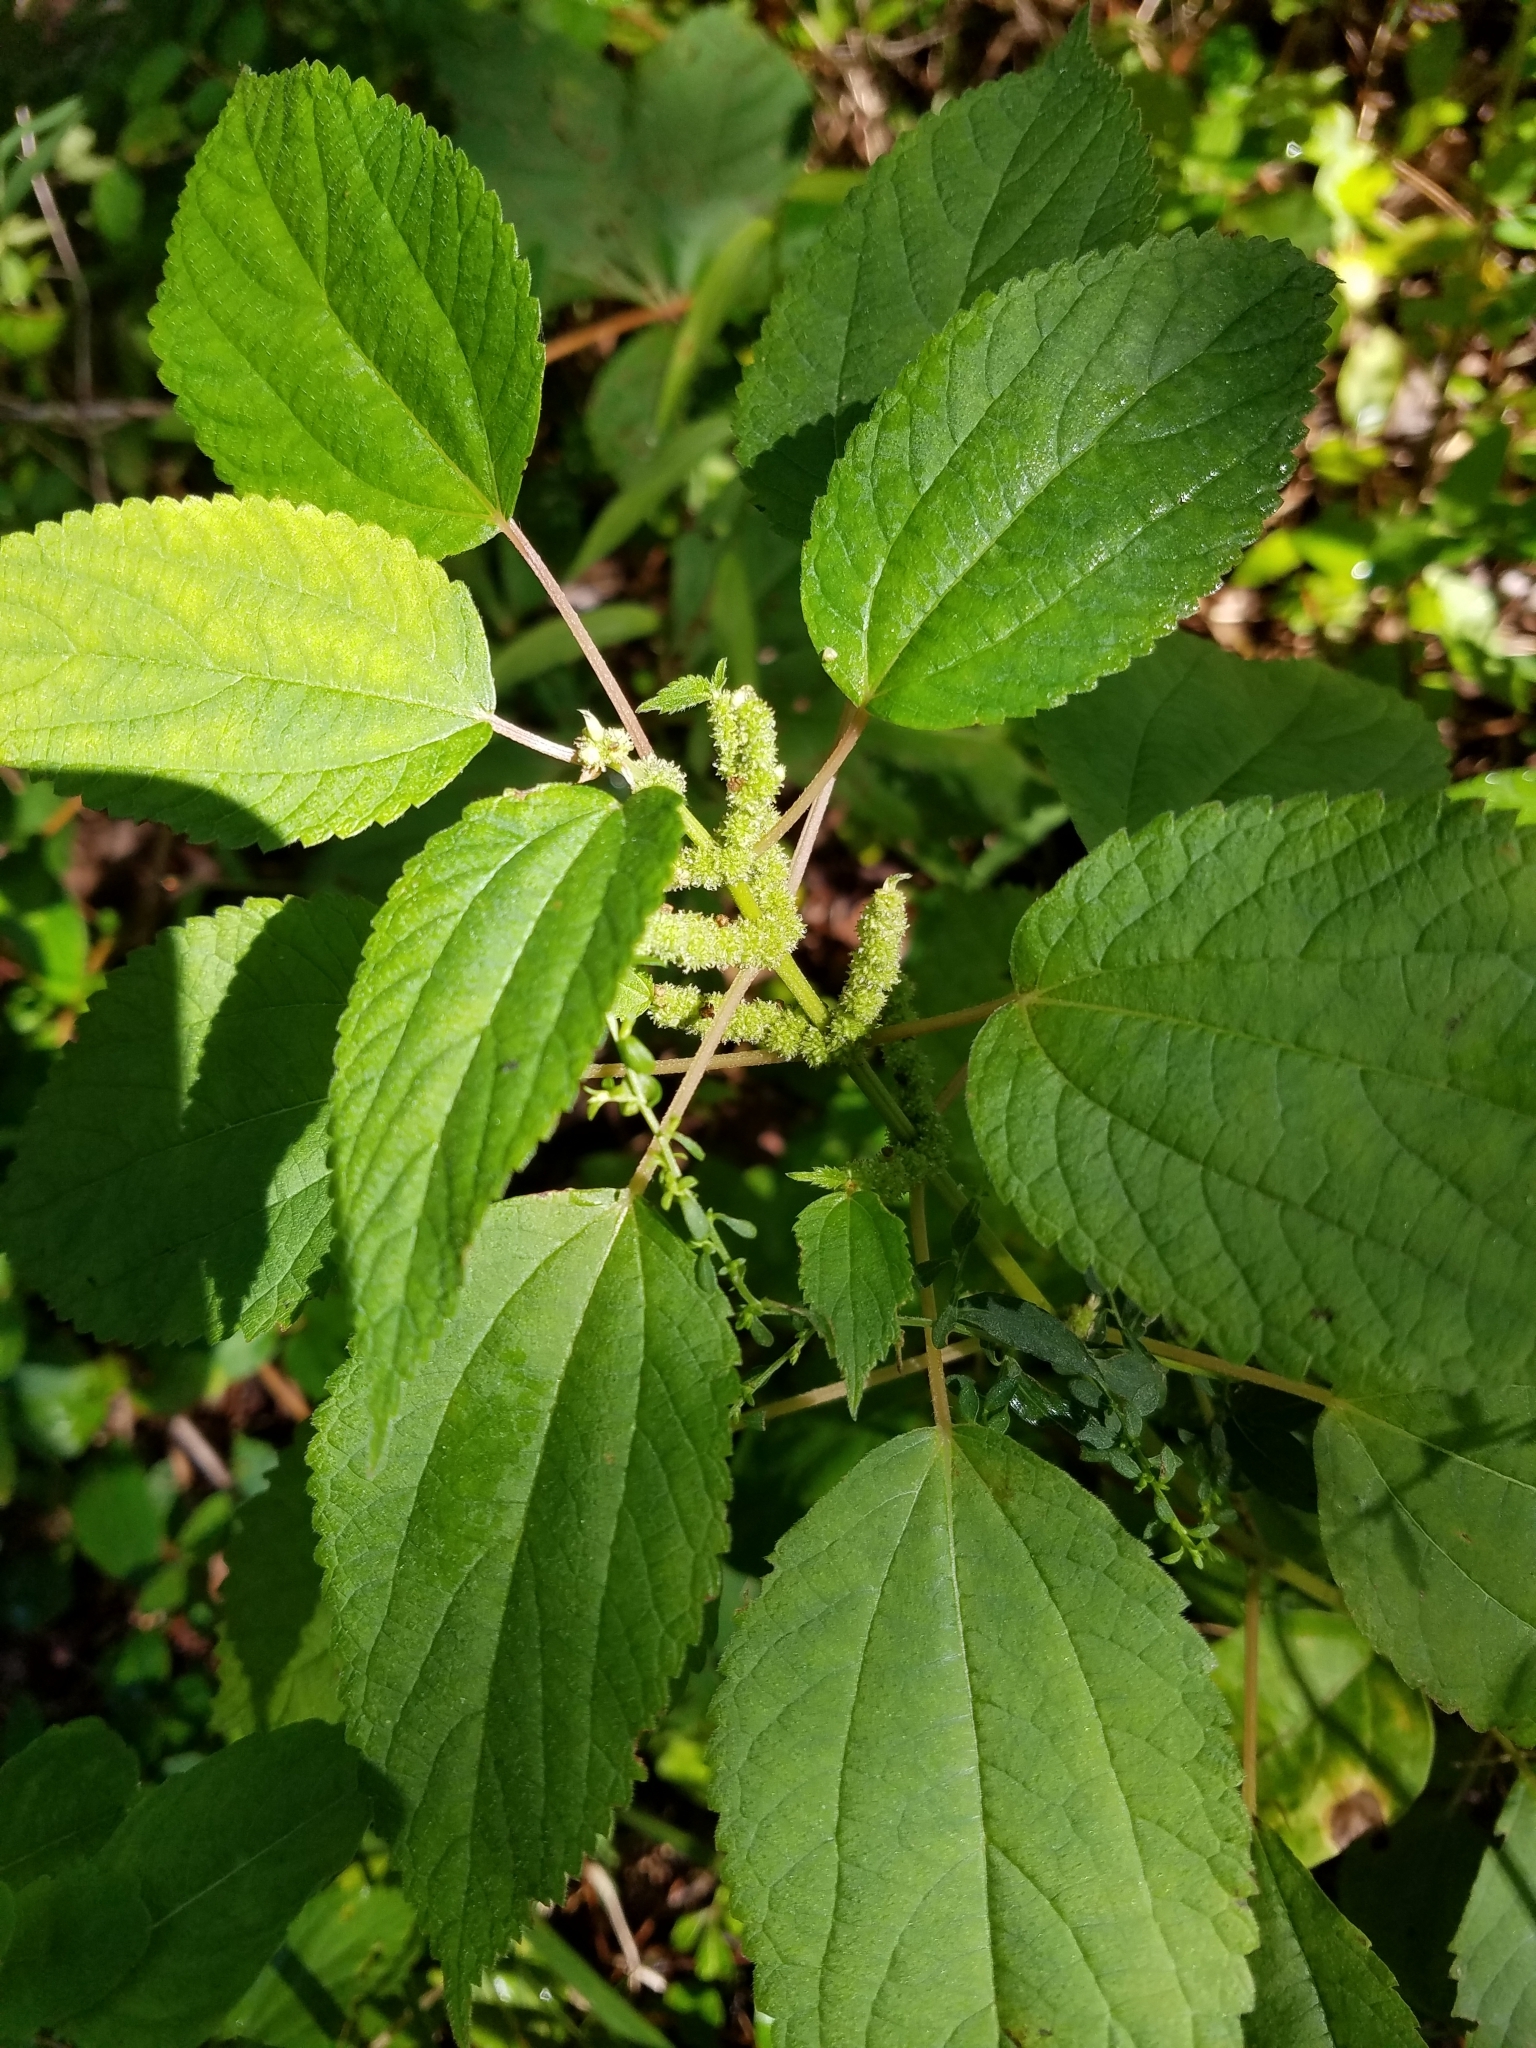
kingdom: Plantae
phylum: Tracheophyta
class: Magnoliopsida
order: Rosales
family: Urticaceae
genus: Boehmeria
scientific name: Boehmeria cylindrica
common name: Bog-hemp
